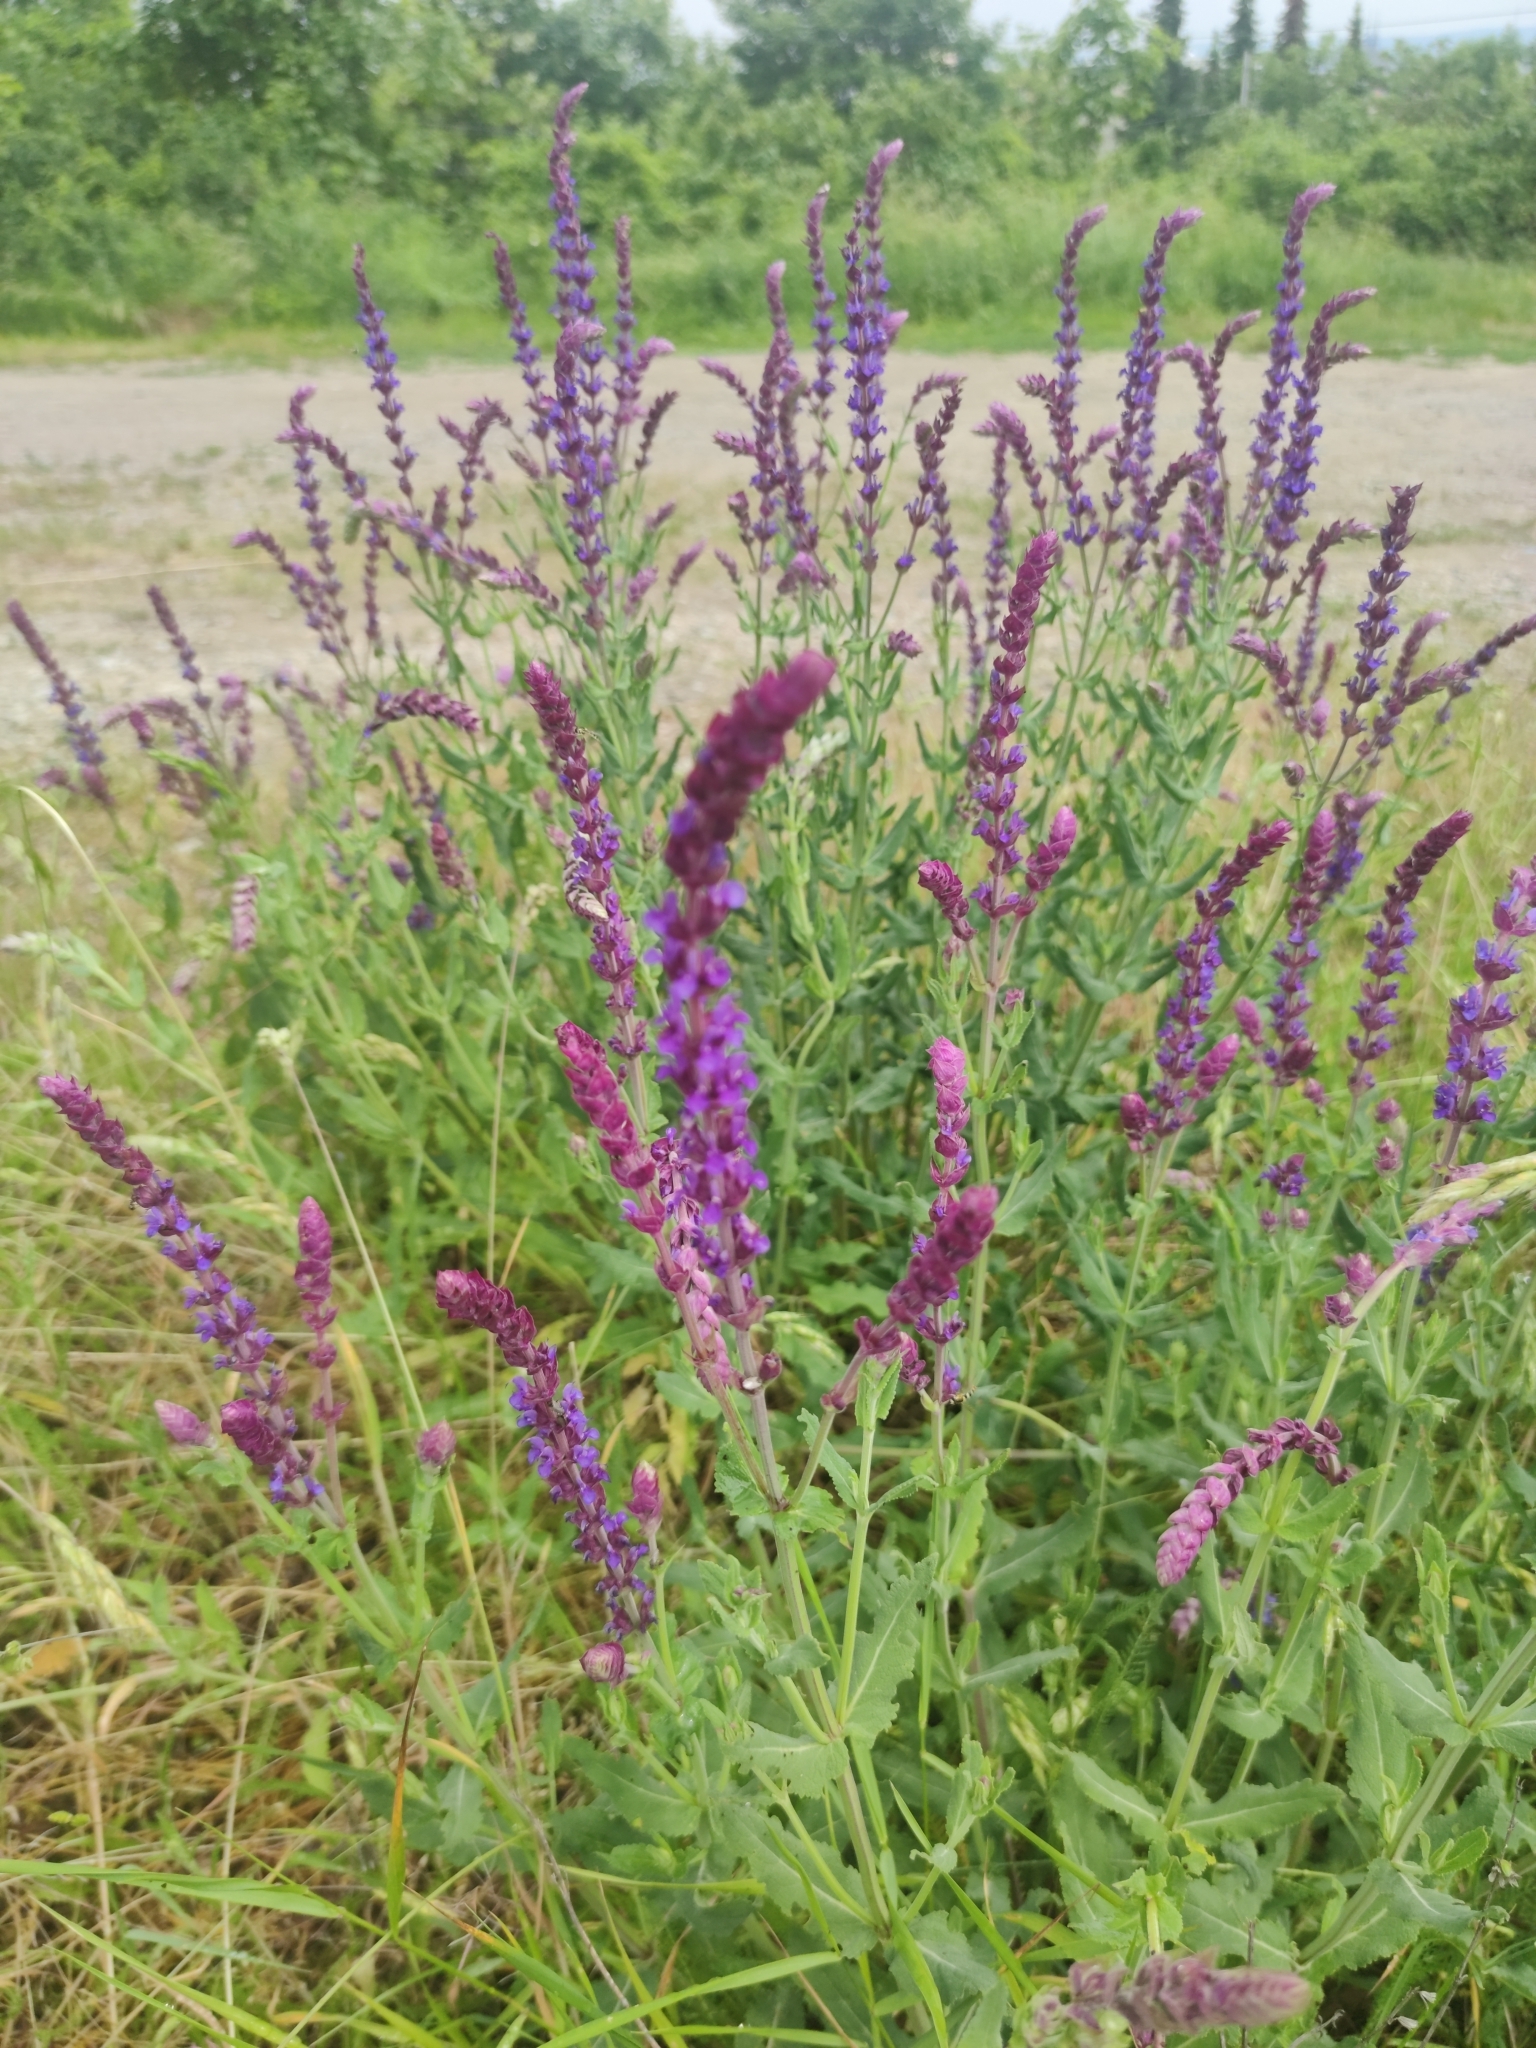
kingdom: Plantae
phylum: Tracheophyta
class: Magnoliopsida
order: Lamiales
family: Lamiaceae
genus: Salvia
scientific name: Salvia nemorosa
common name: Balkan clary
